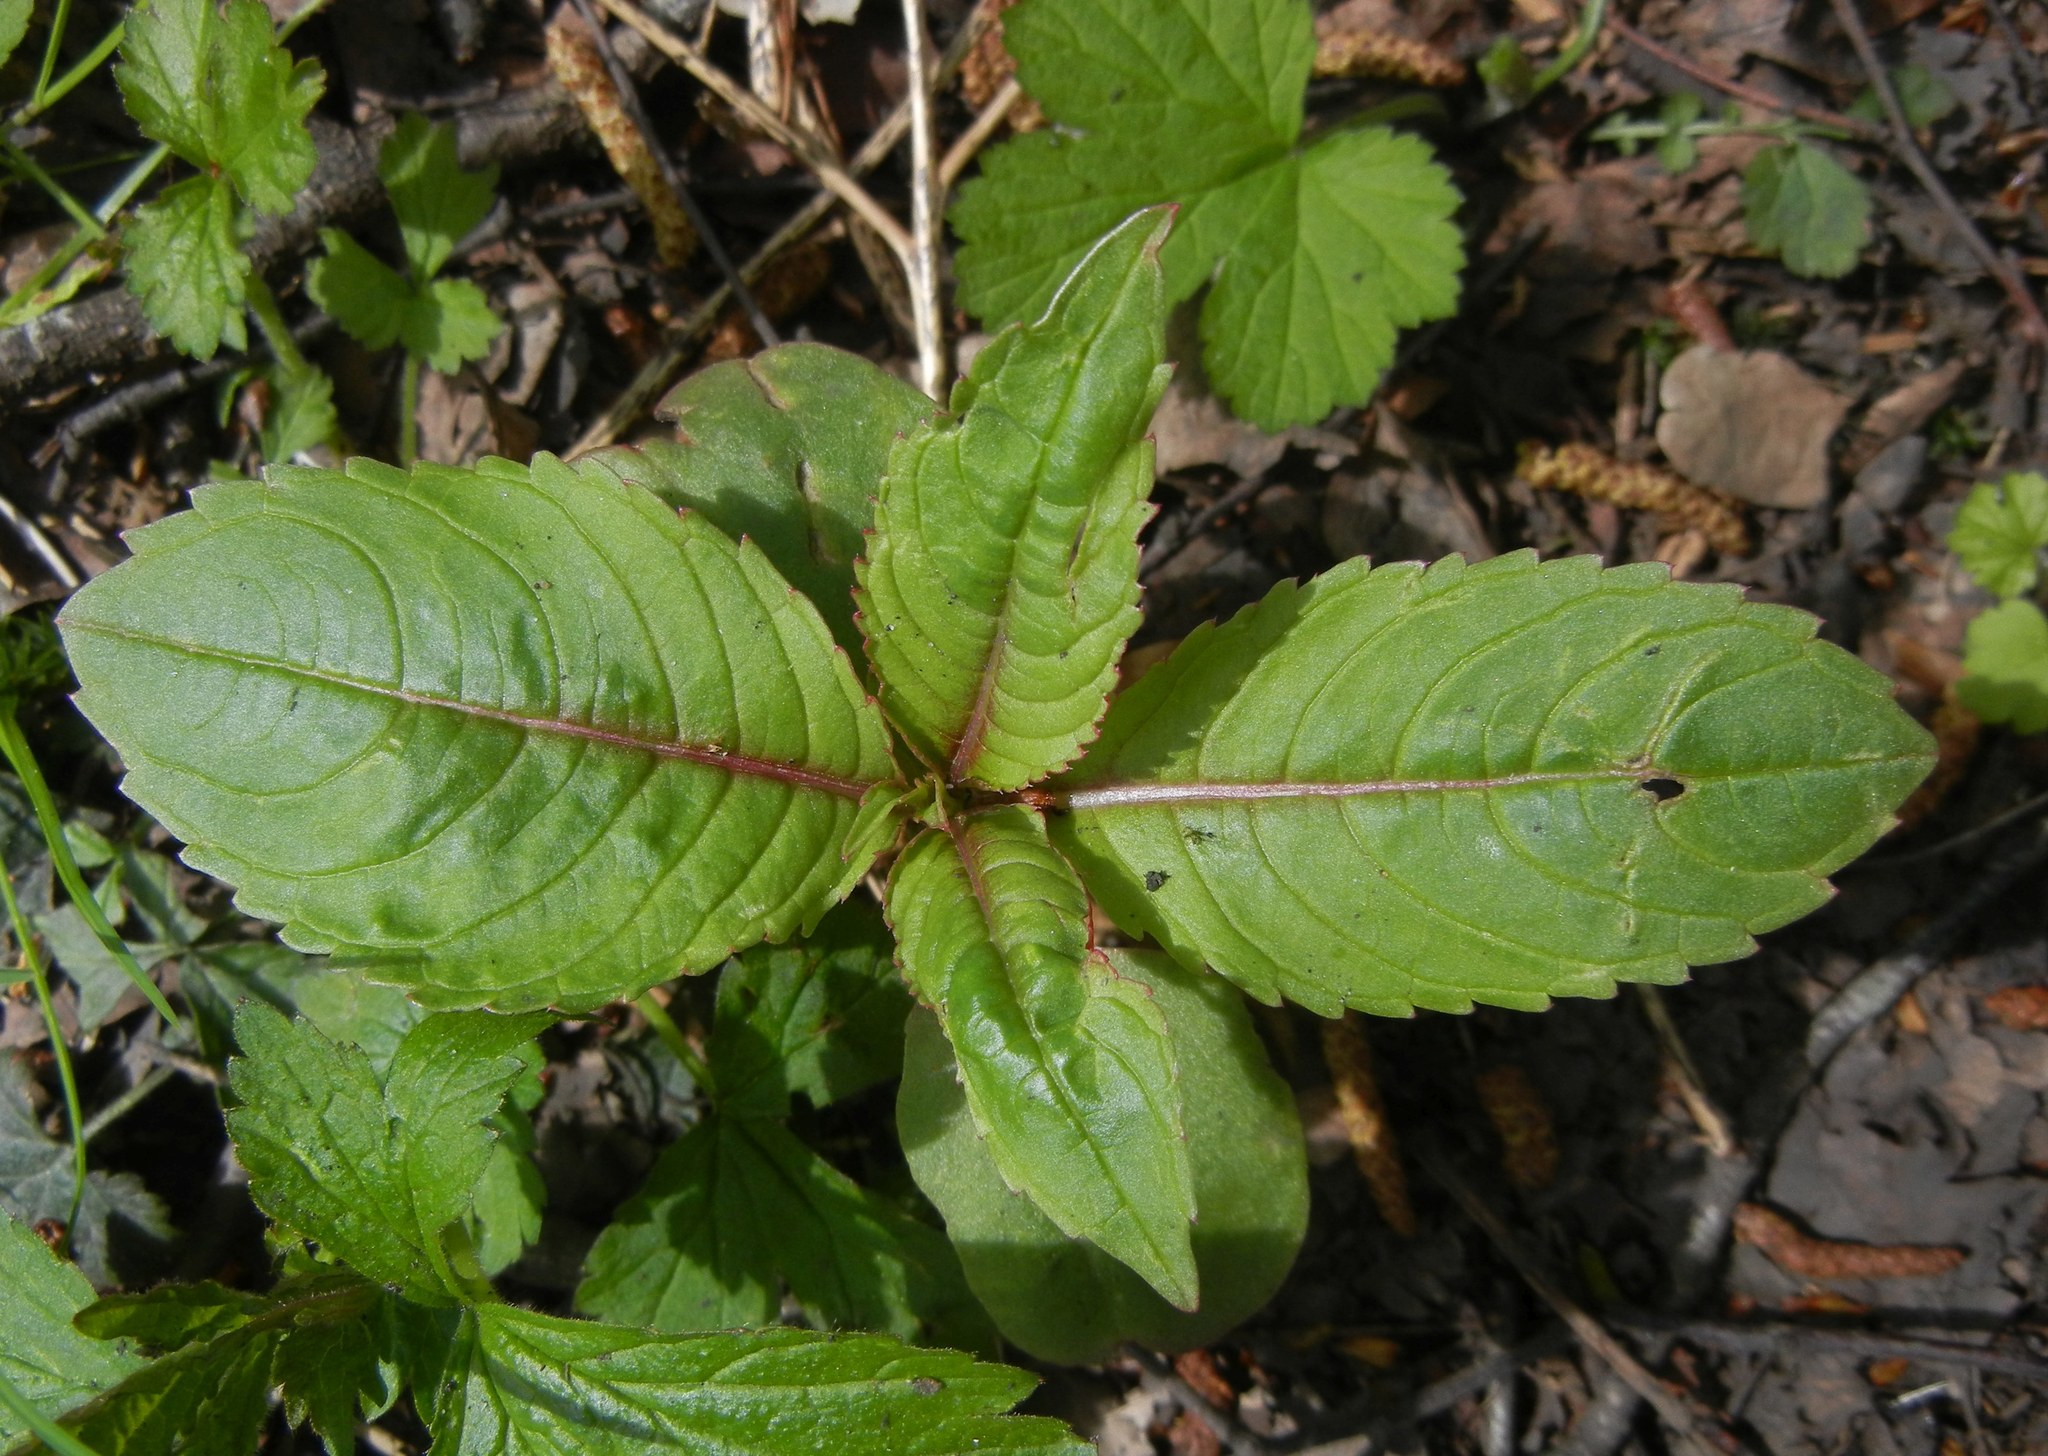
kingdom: Plantae
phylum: Tracheophyta
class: Magnoliopsida
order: Ericales
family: Balsaminaceae
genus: Impatiens
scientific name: Impatiens glandulifera
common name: Himalayan balsam
